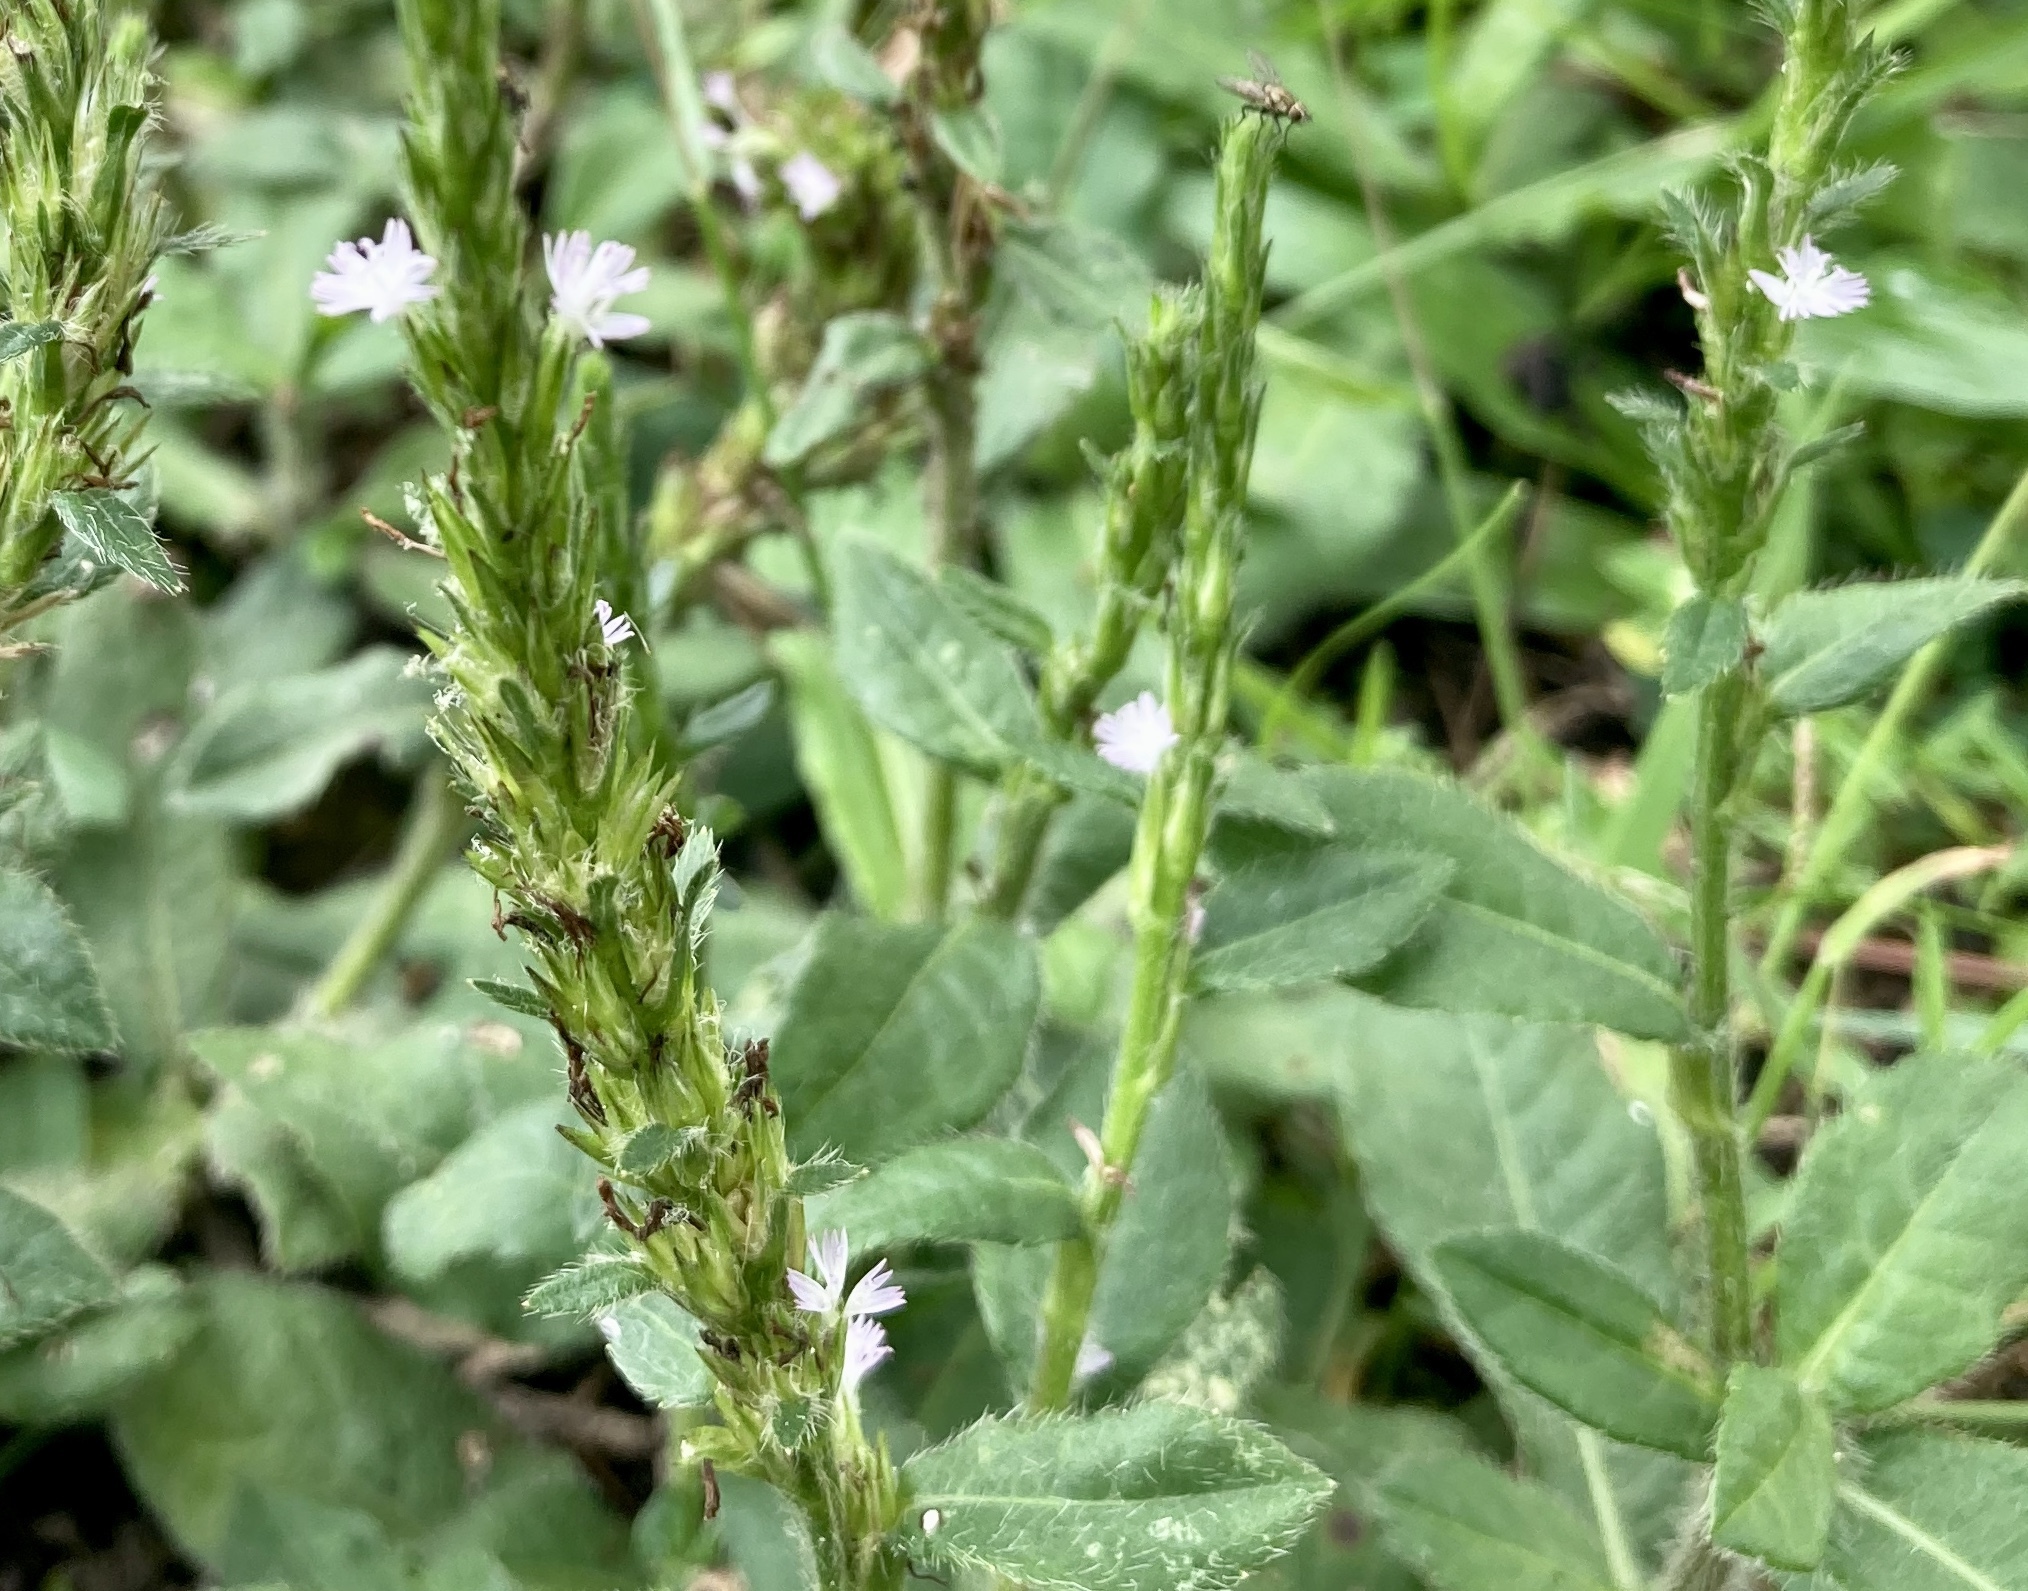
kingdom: Plantae
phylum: Tracheophyta
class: Magnoliopsida
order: Asterales
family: Asteraceae
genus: Pseudelephantopus
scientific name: Pseudelephantopus spicatus
